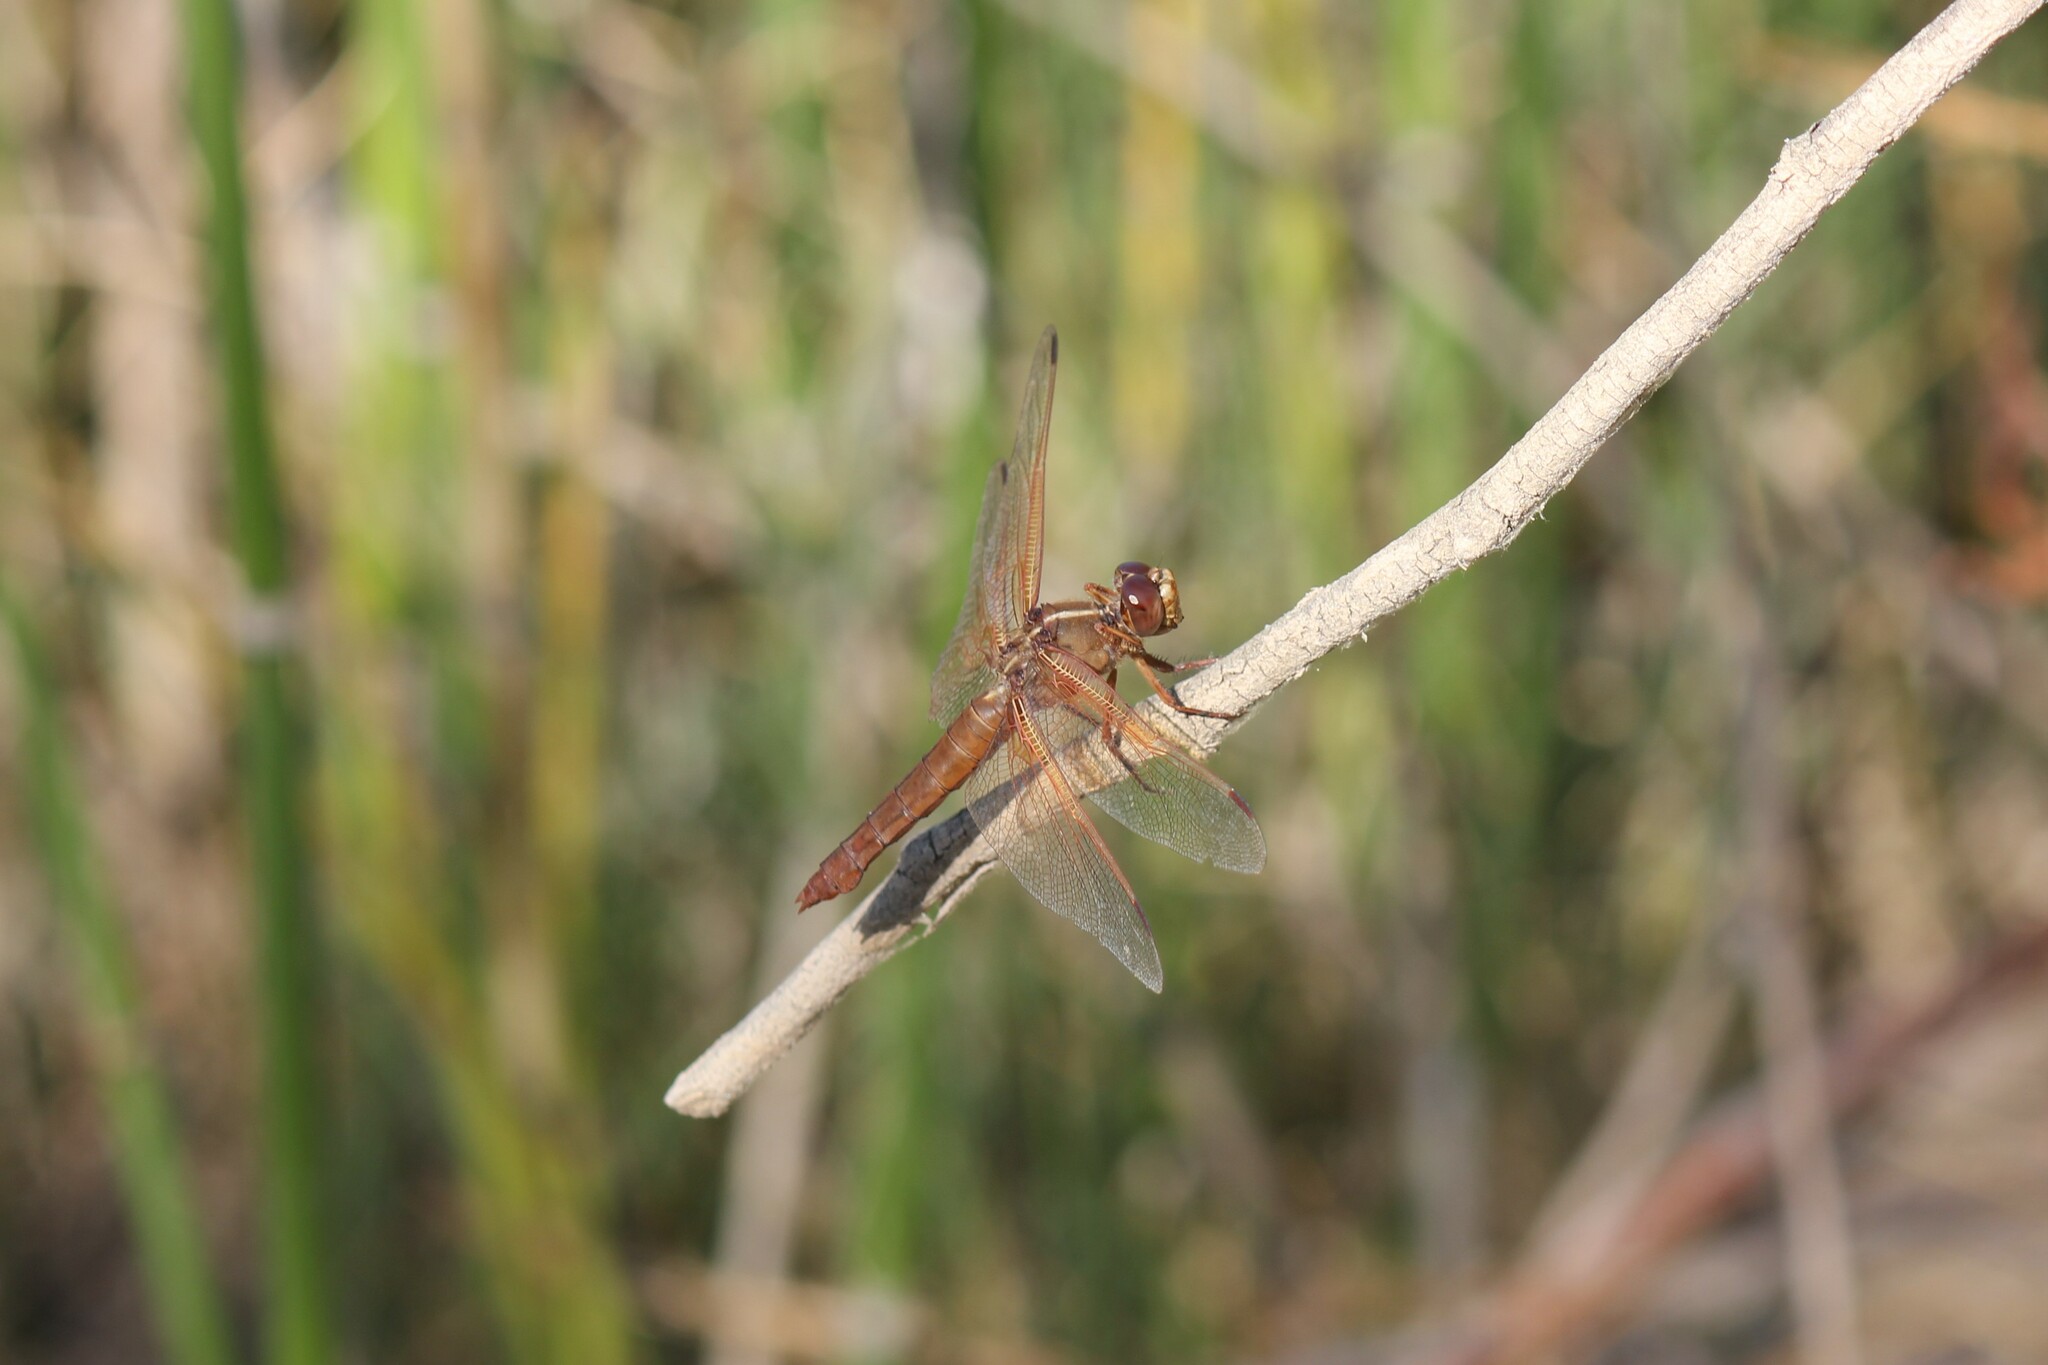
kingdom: Animalia
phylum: Arthropoda
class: Insecta
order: Odonata
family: Libellulidae
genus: Libellula
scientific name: Libellula saturata
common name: Flame skimmer
